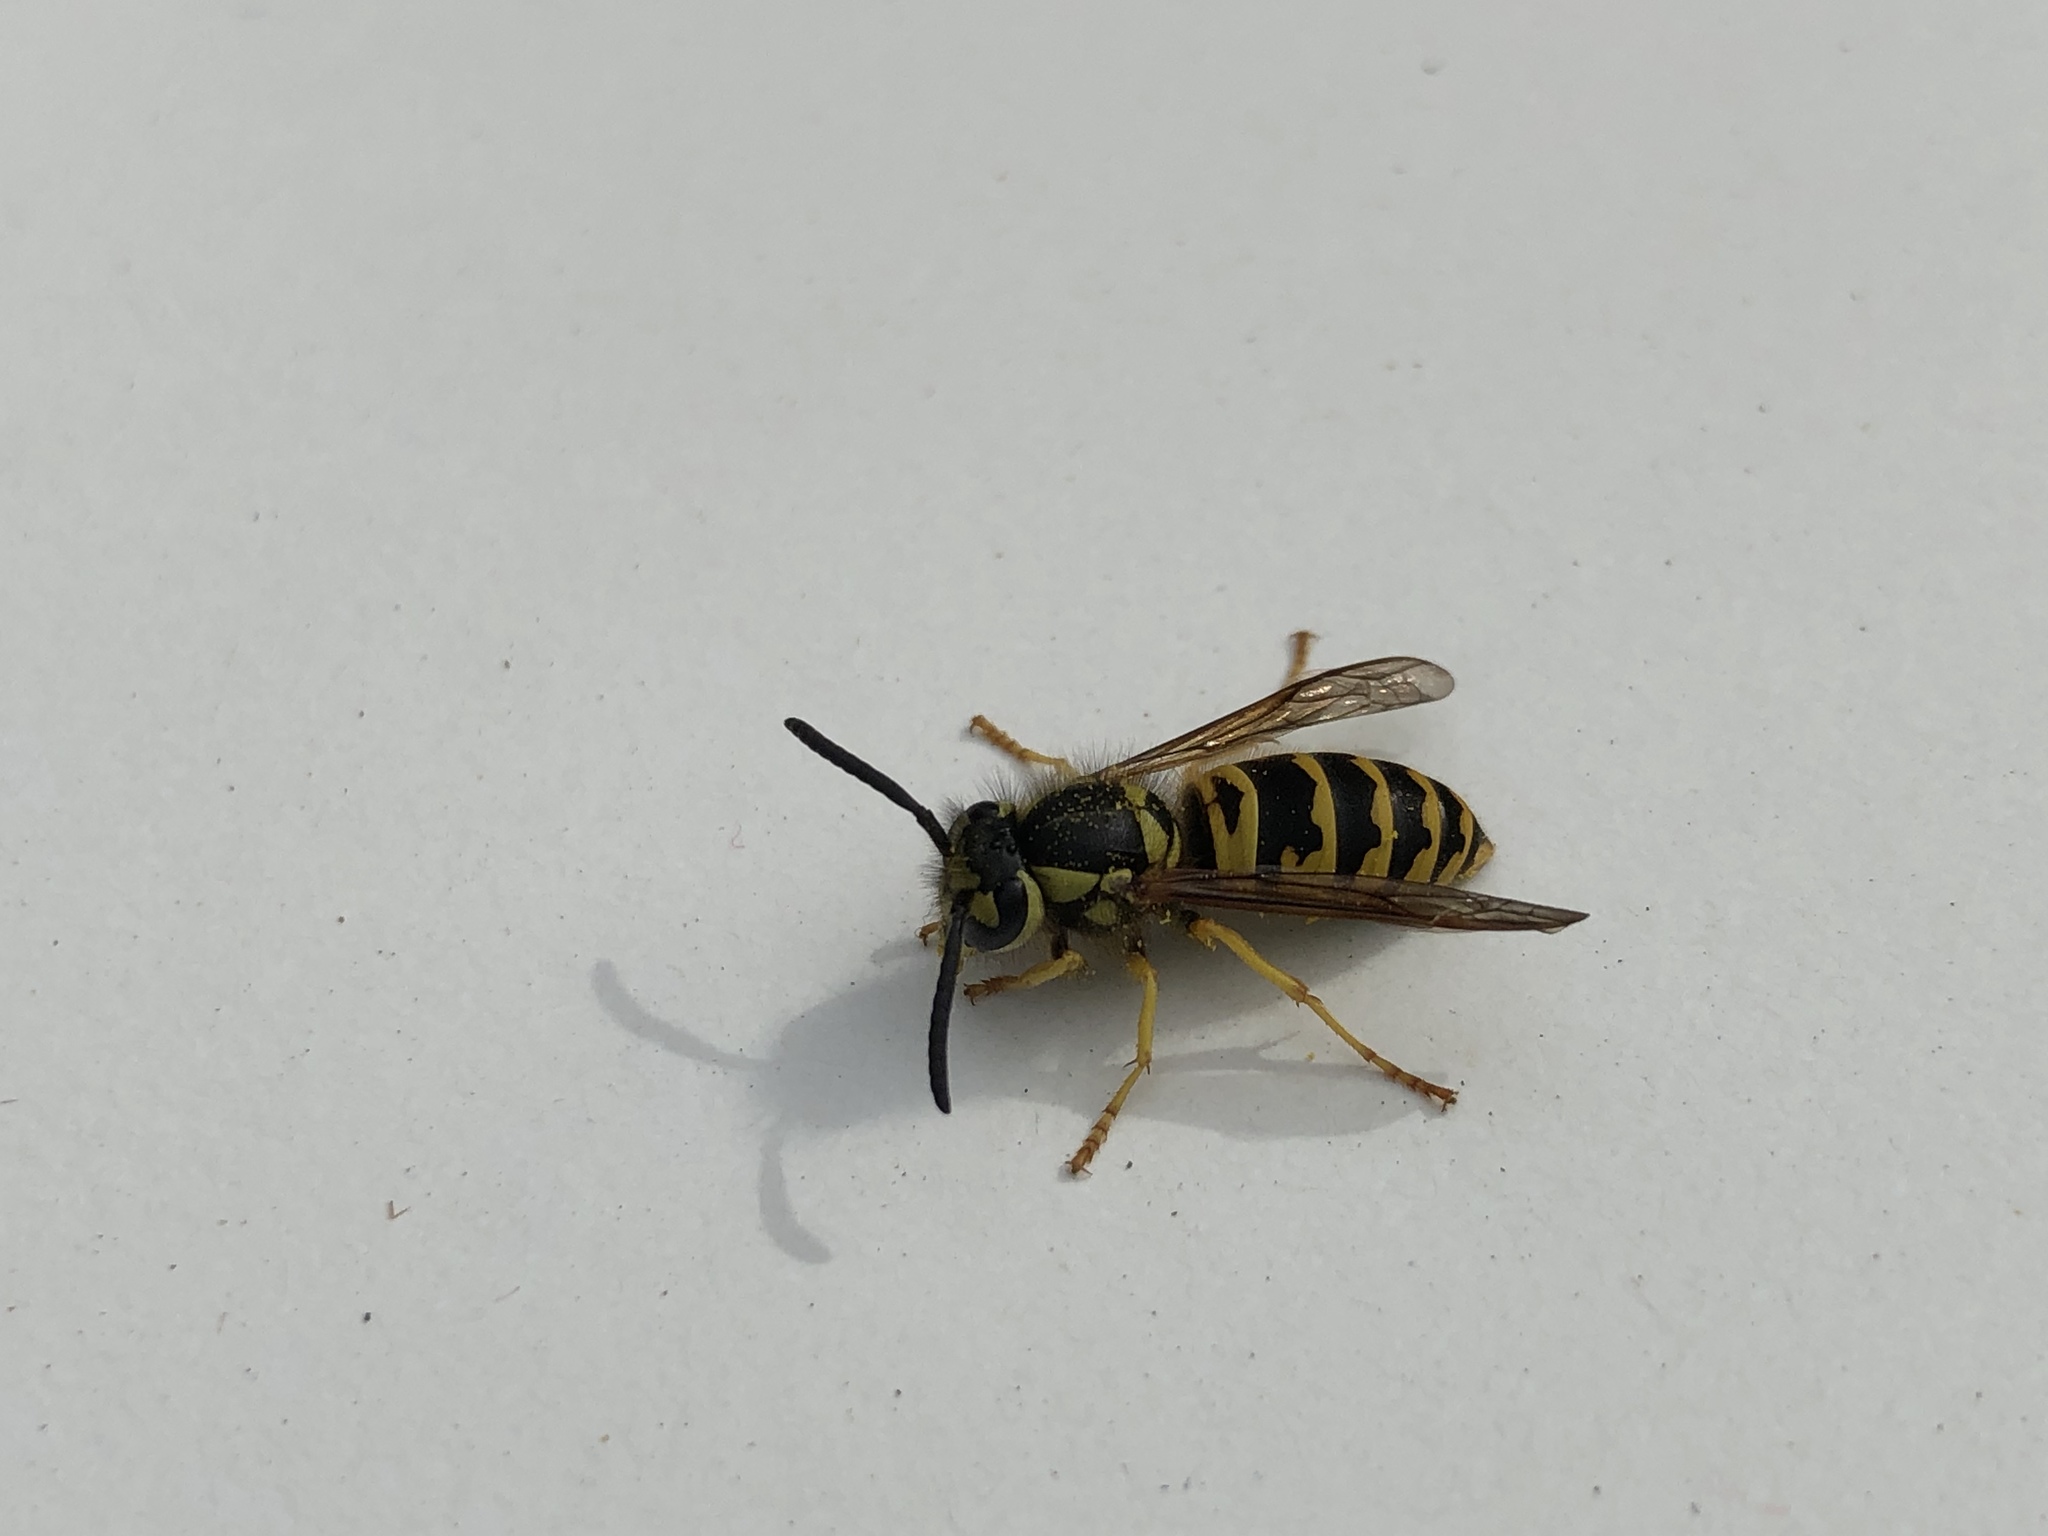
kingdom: Animalia
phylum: Arthropoda
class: Insecta
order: Hymenoptera
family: Vespidae
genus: Vespula
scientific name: Vespula maculifrons
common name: Eastern yellowjacket
